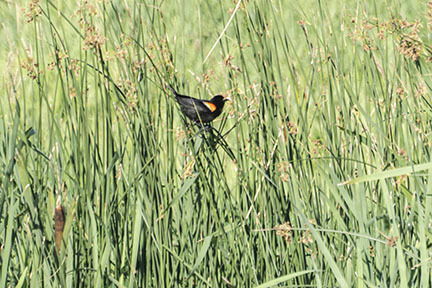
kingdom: Animalia
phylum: Chordata
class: Aves
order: Passeriformes
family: Icteridae
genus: Agelaius
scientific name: Agelaius phoeniceus
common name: Red-winged blackbird
